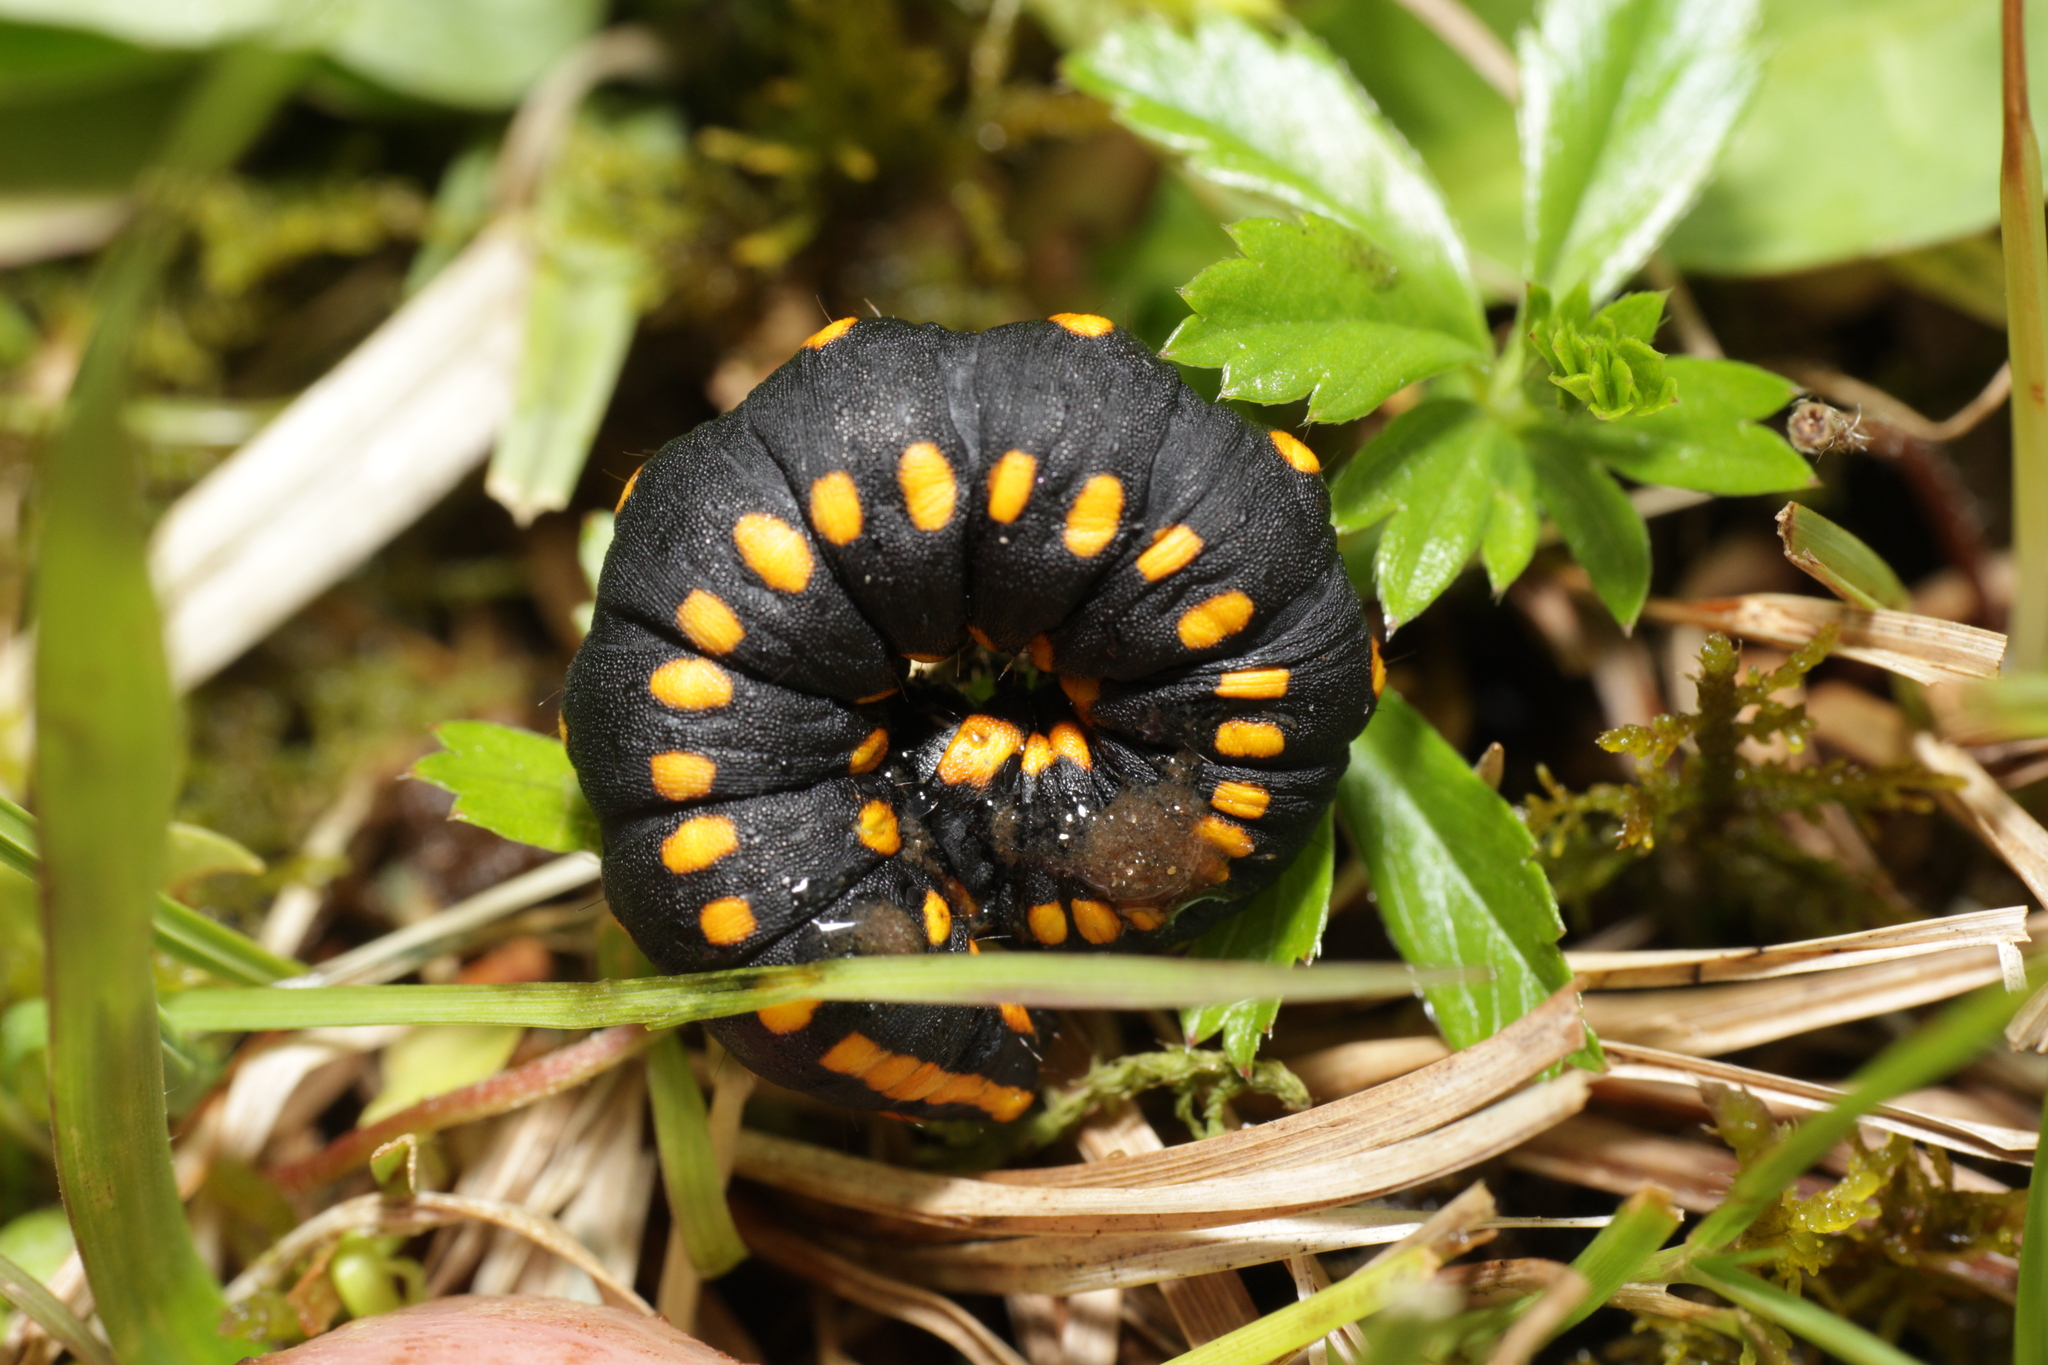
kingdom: Animalia
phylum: Arthropoda
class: Insecta
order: Lepidoptera
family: Noctuidae
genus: Cucullia
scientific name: Cucullia lucifuga
